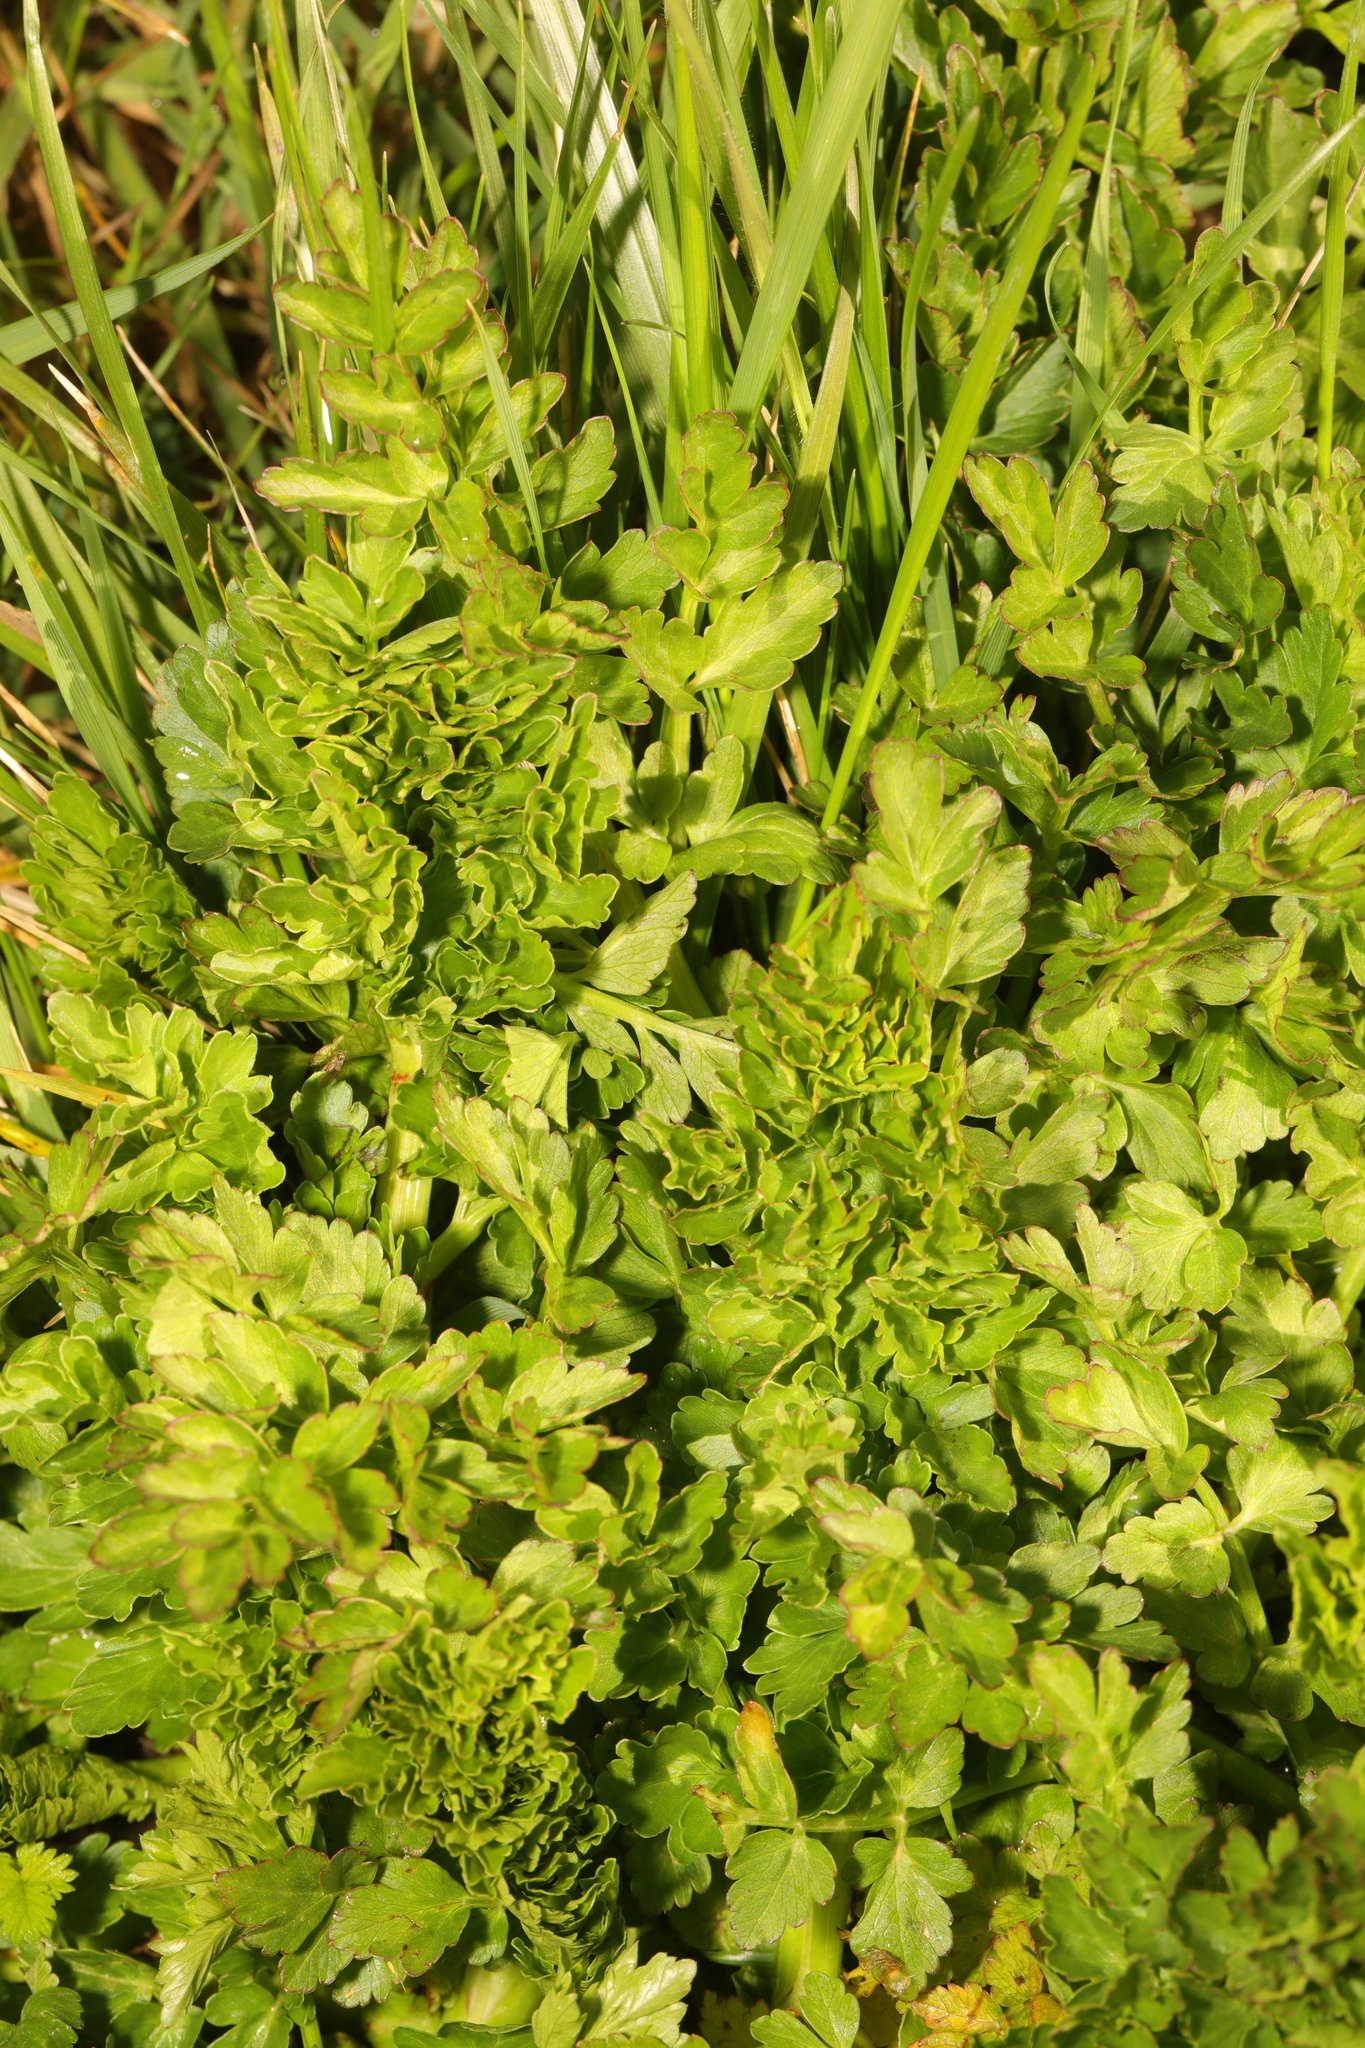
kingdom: Plantae
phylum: Tracheophyta
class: Magnoliopsida
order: Apiales
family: Apiaceae
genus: Oenanthe
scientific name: Oenanthe crocata
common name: Hemlock water-dropwort
